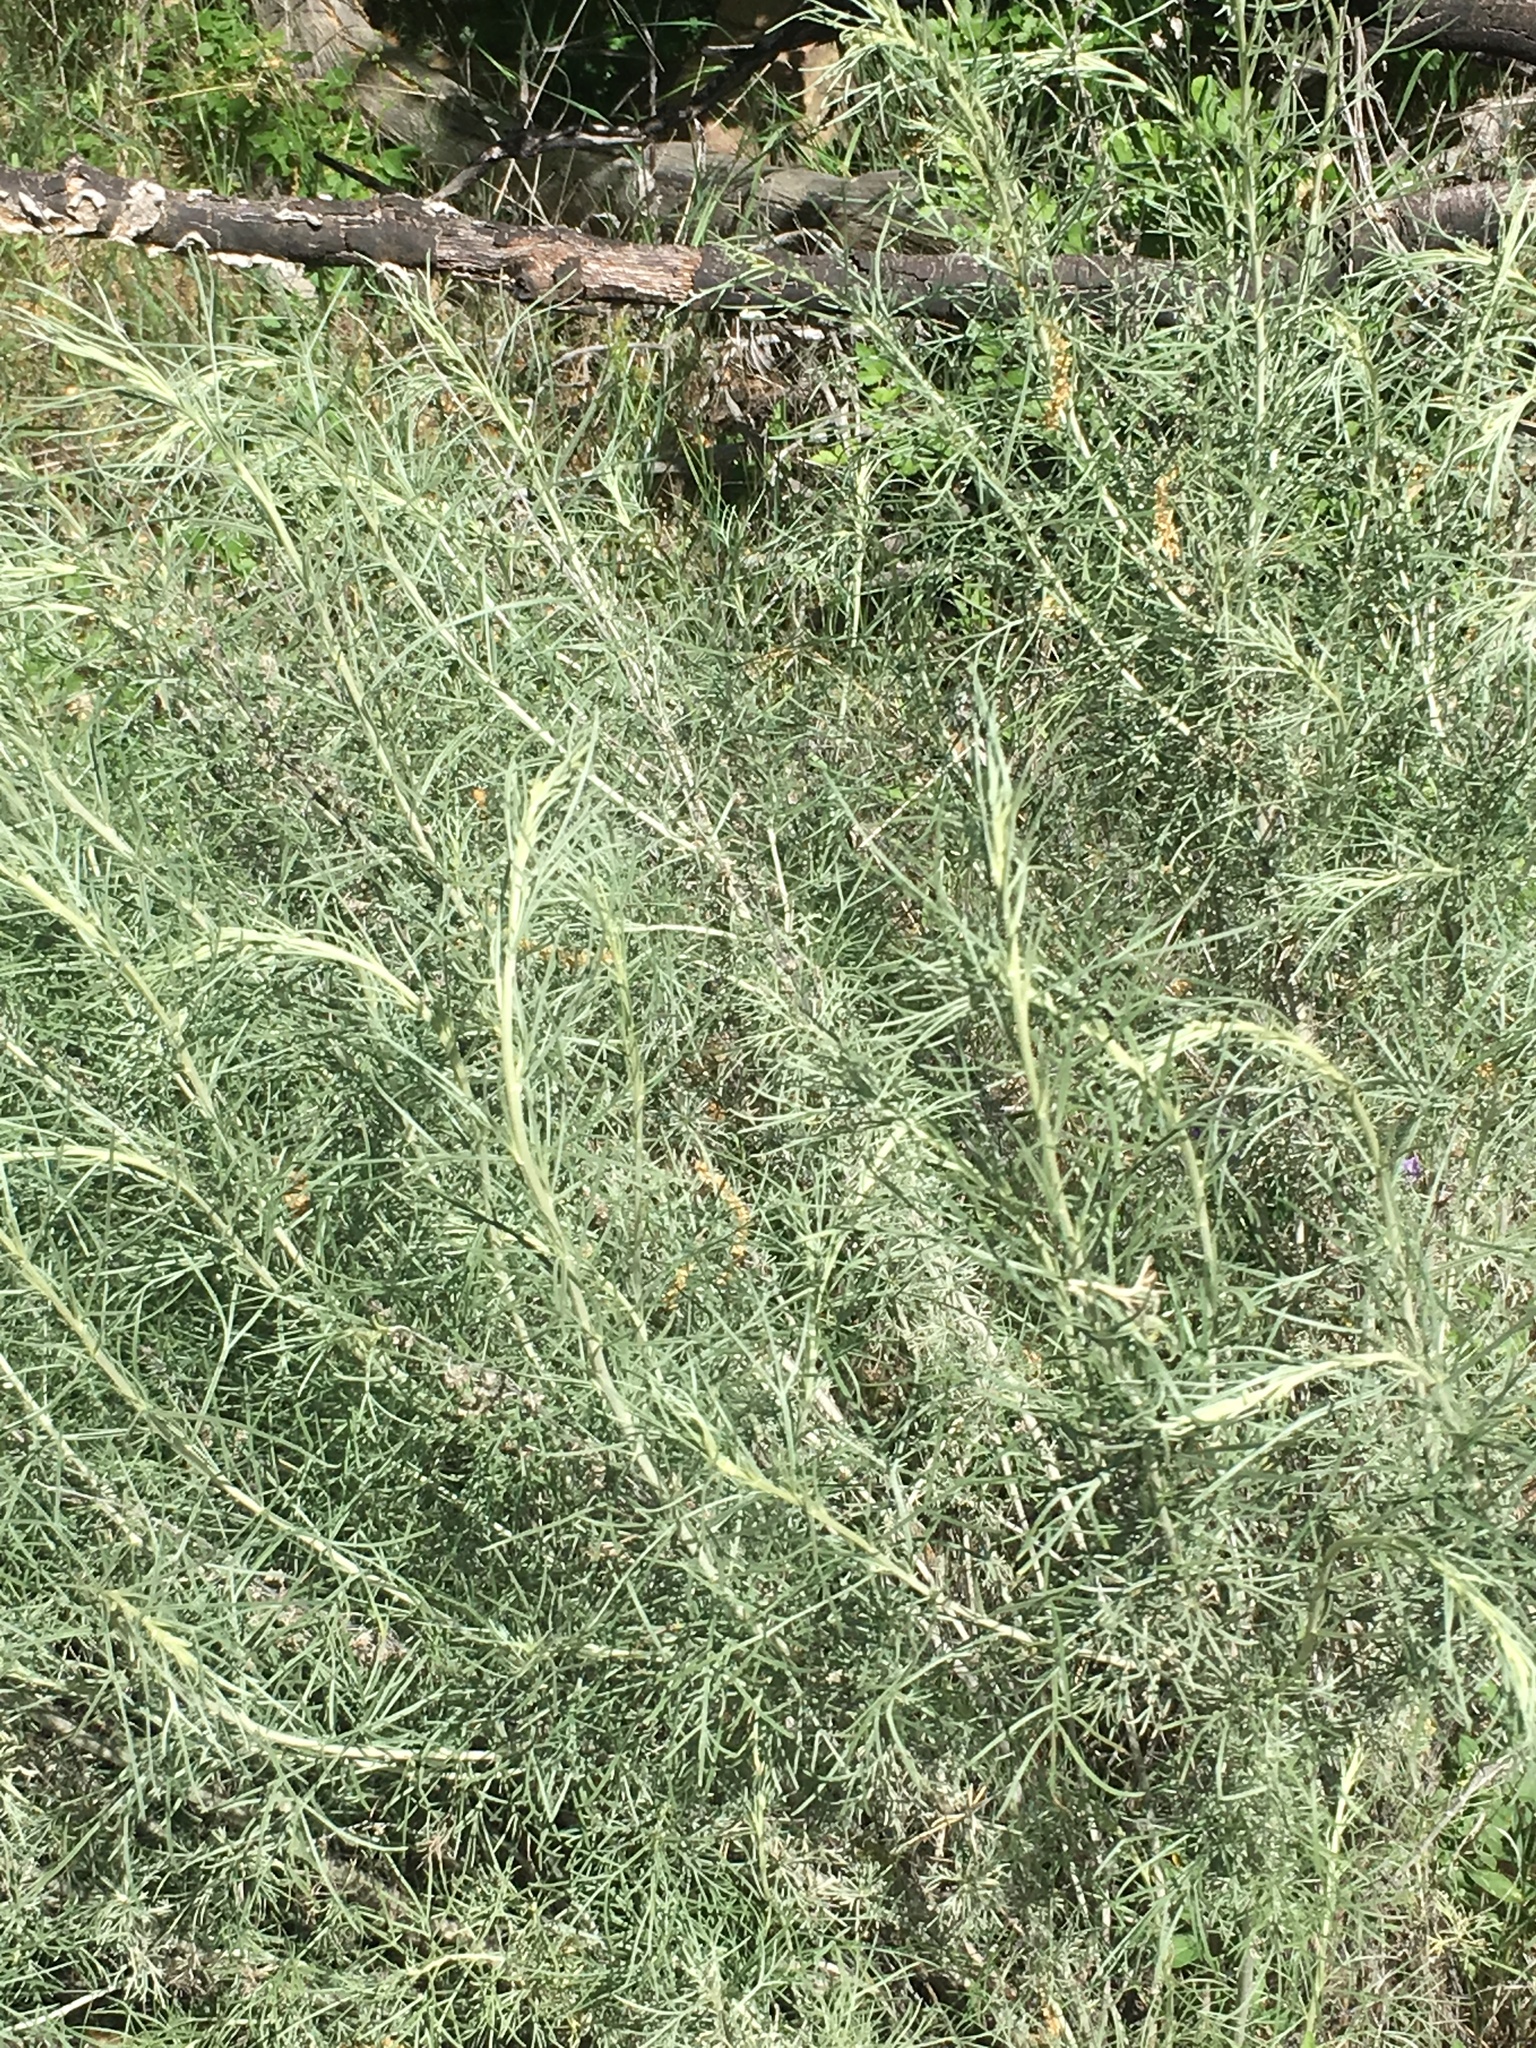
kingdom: Plantae
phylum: Tracheophyta
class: Magnoliopsida
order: Asterales
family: Asteraceae
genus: Artemisia
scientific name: Artemisia californica
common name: California sagebrush
